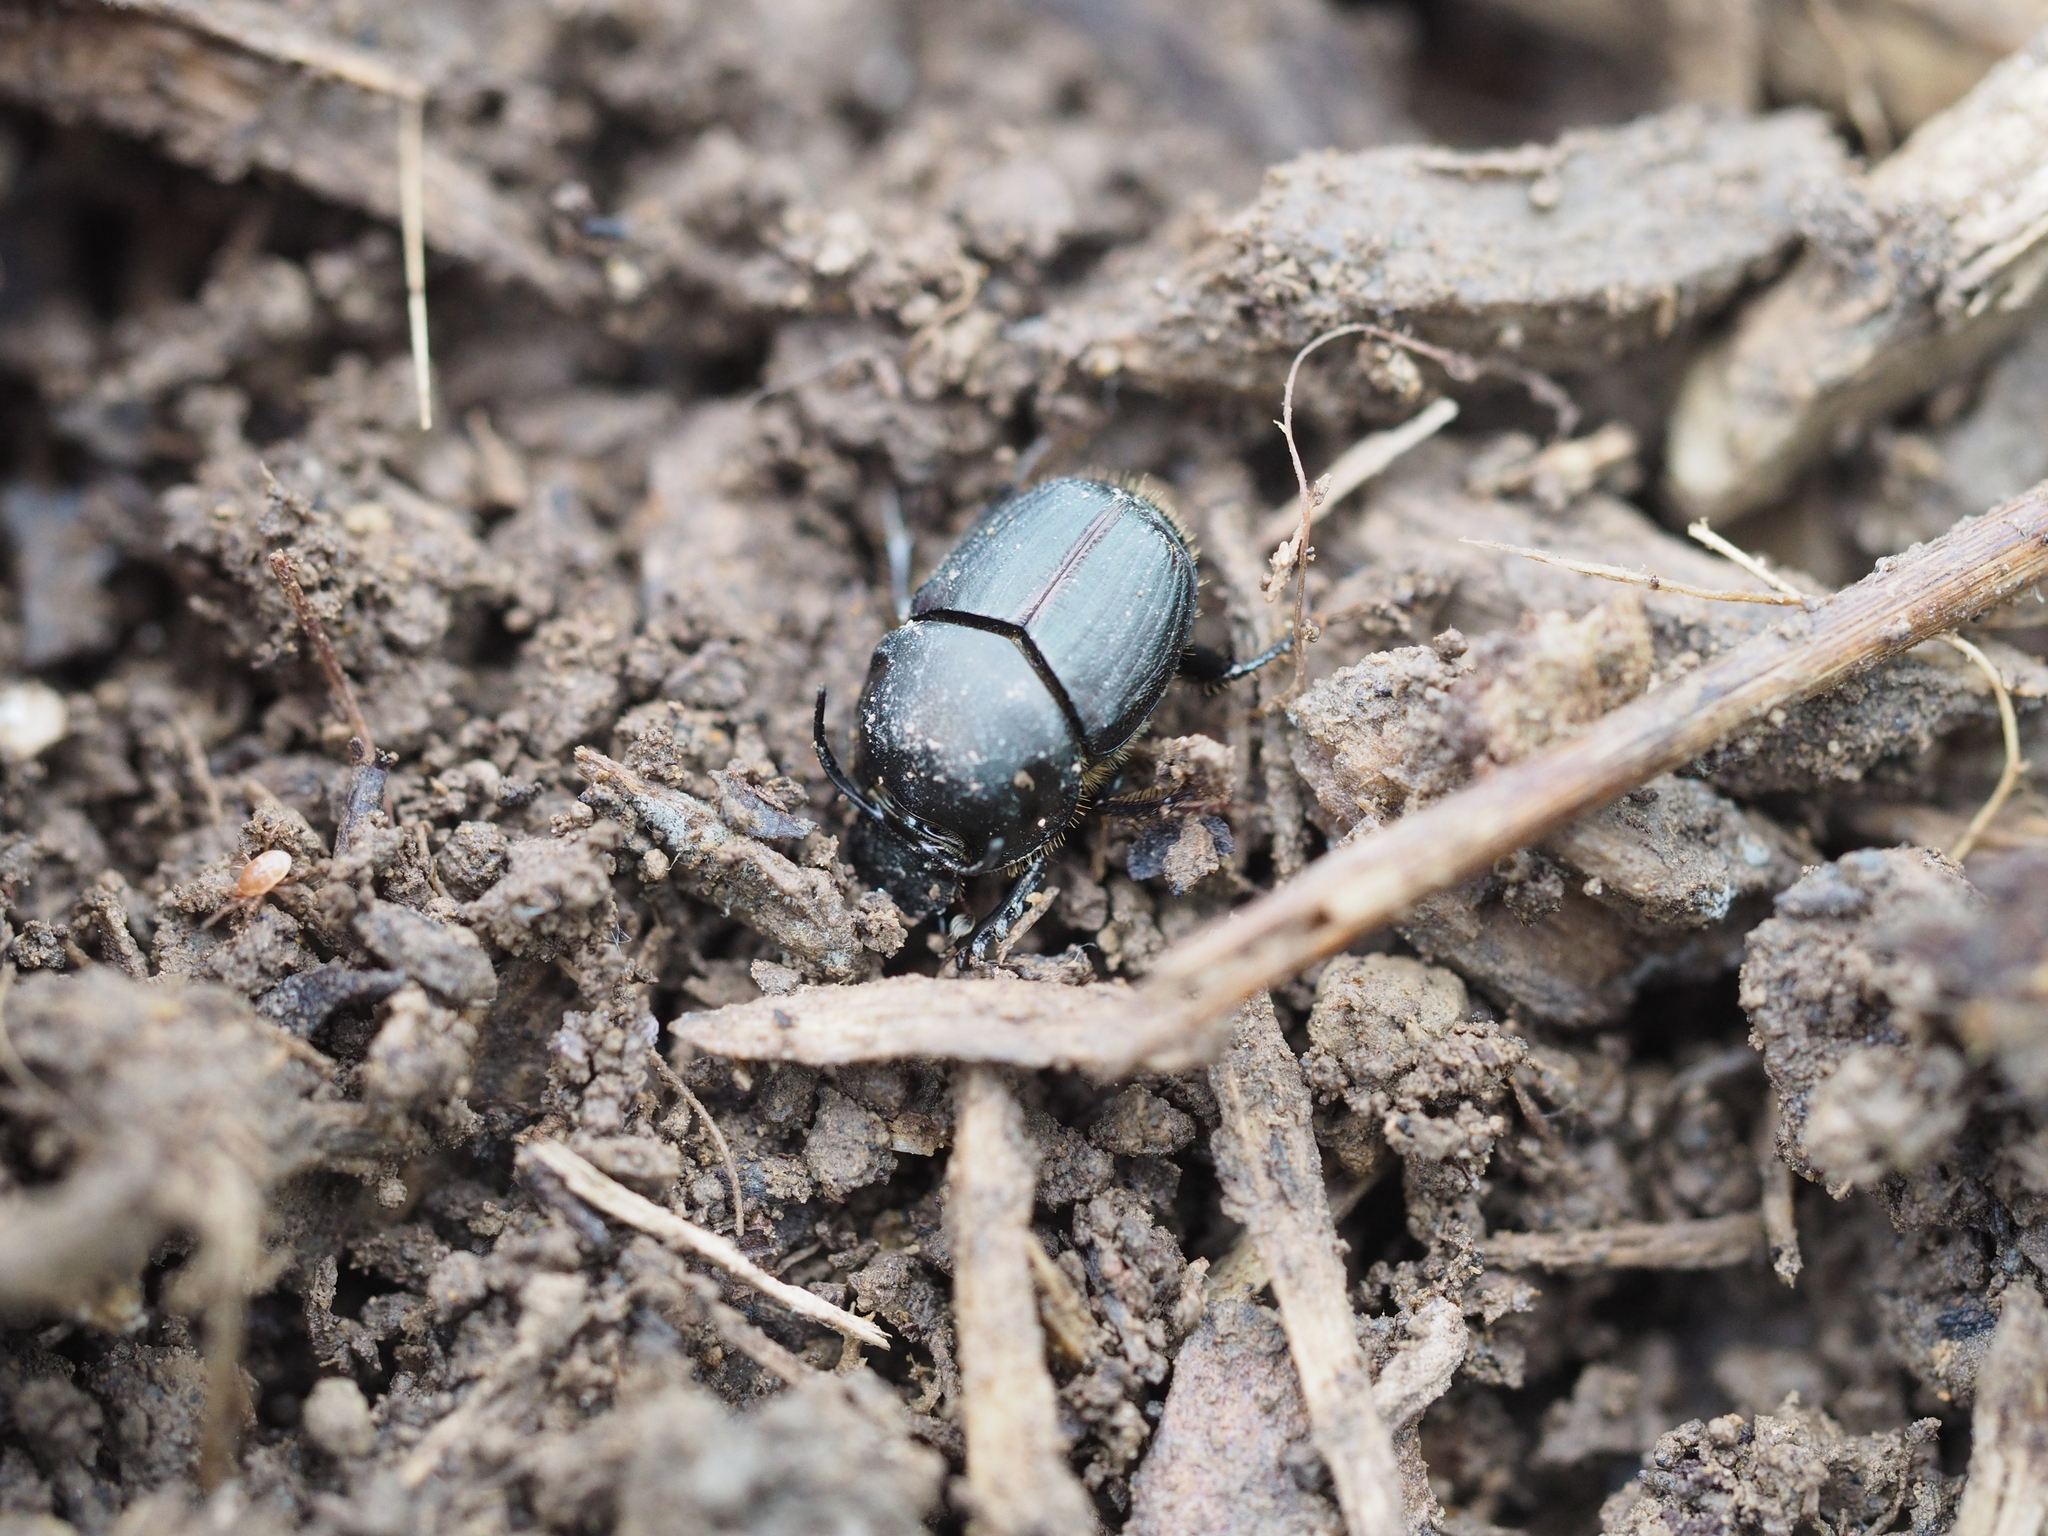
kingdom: Animalia
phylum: Arthropoda
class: Insecta
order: Coleoptera
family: Scarabaeidae
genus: Onthophagus
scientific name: Onthophagus illyricus
